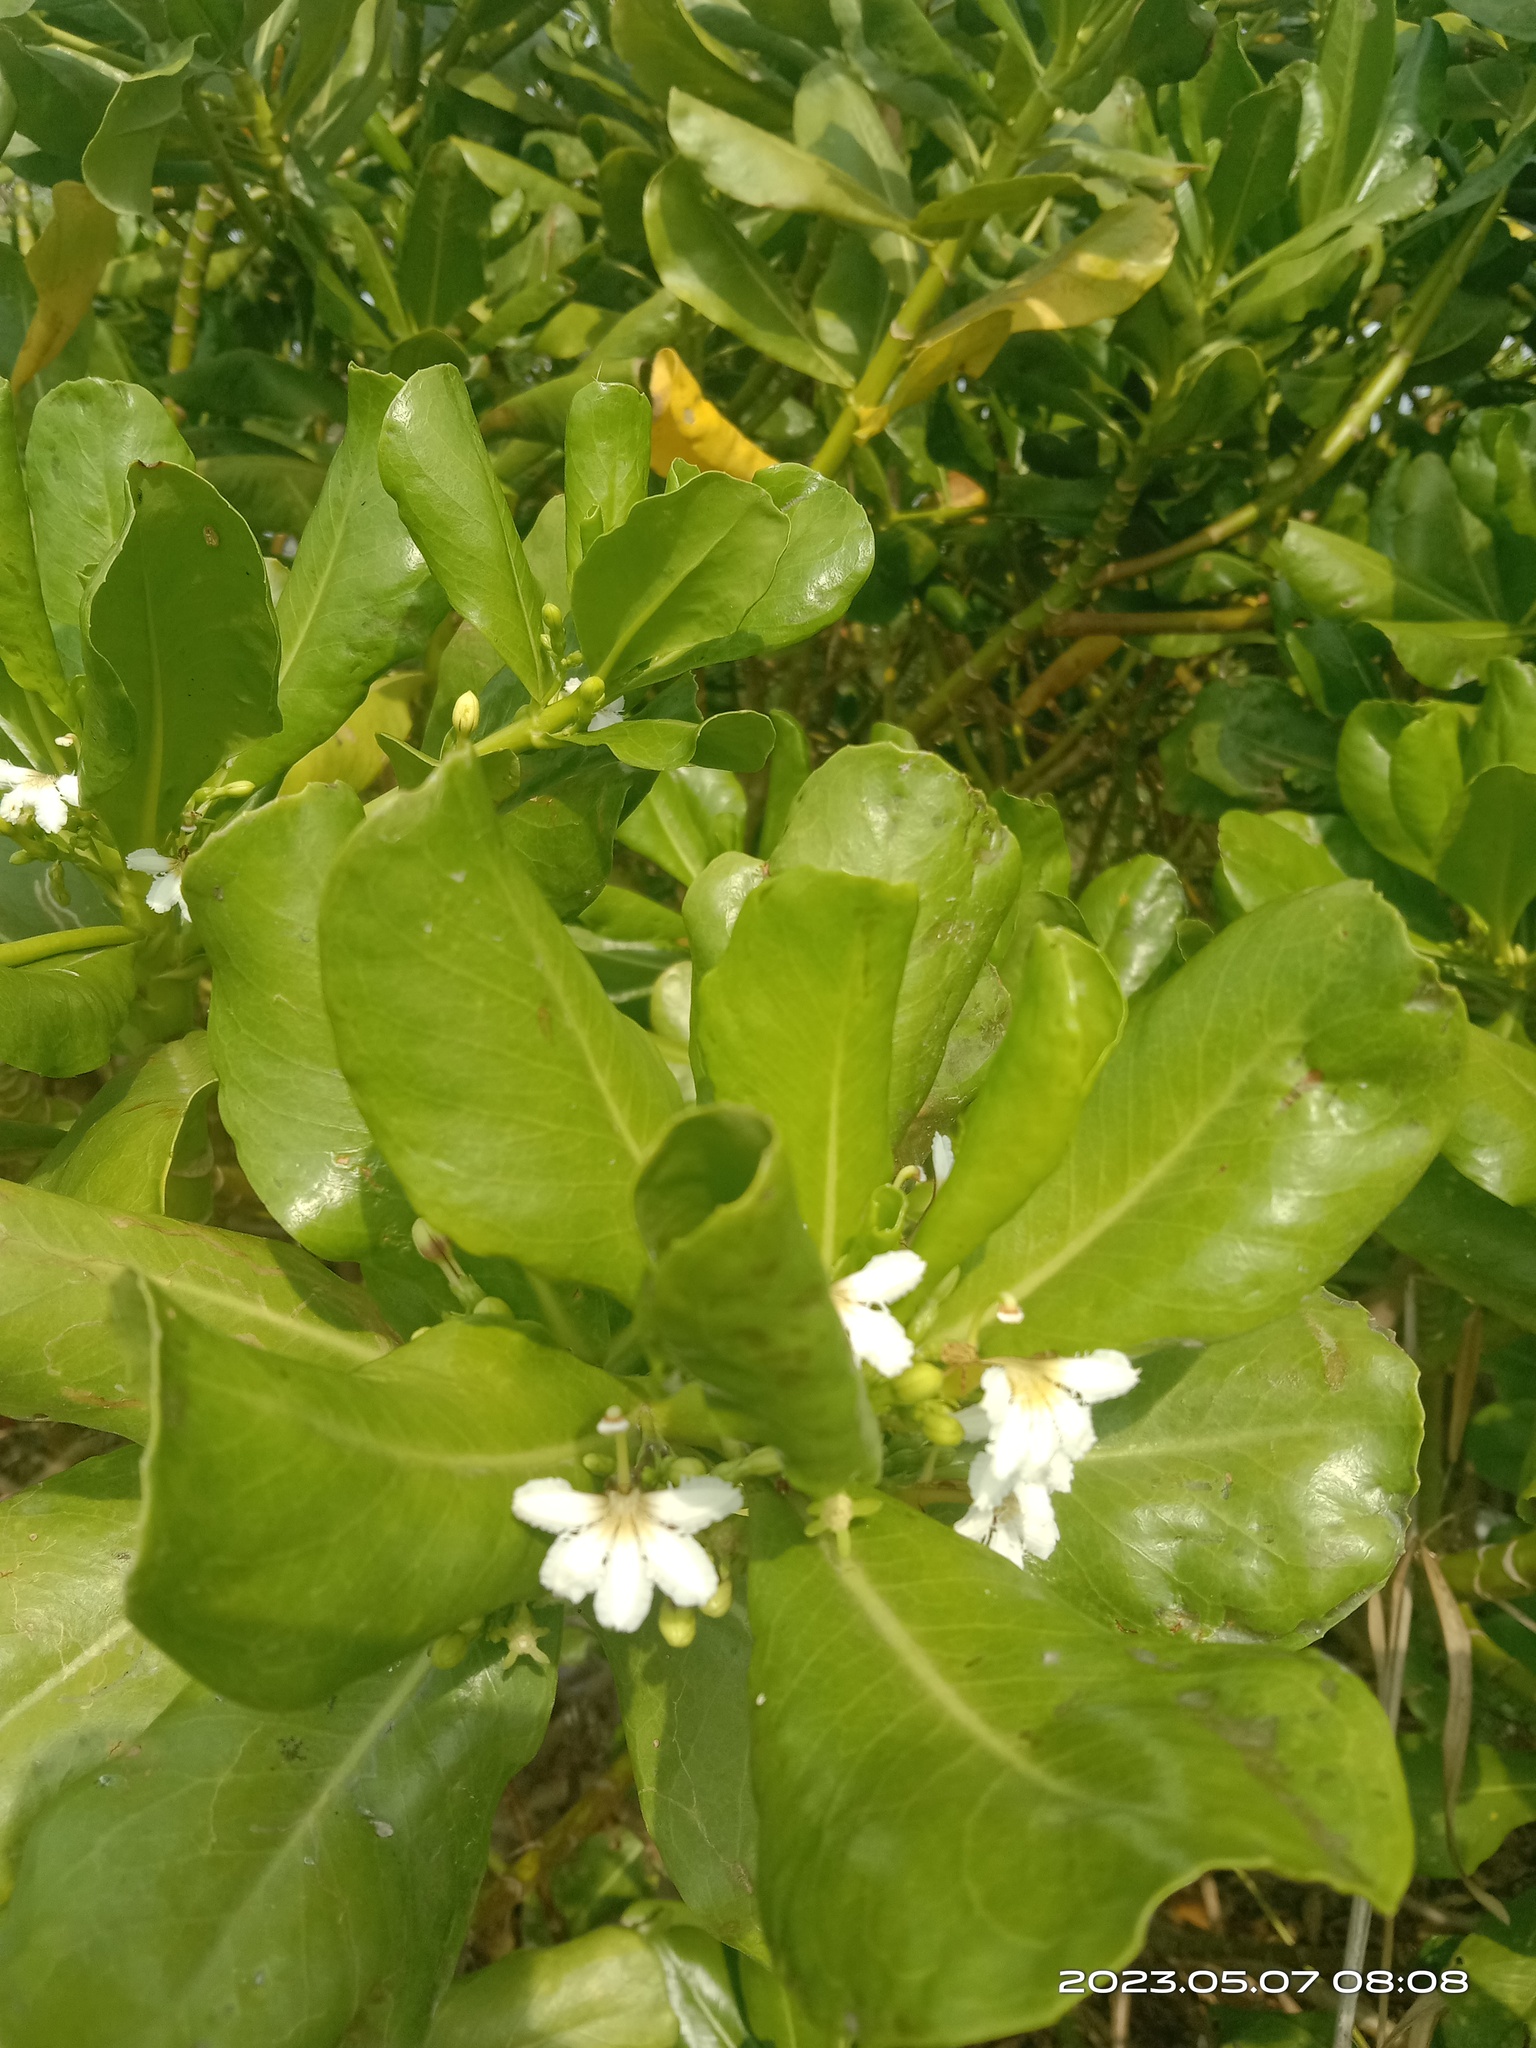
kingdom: Plantae
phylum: Tracheophyta
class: Magnoliopsida
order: Asterales
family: Goodeniaceae
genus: Scaevola
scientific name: Scaevola taccada
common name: Sea lettucetree
